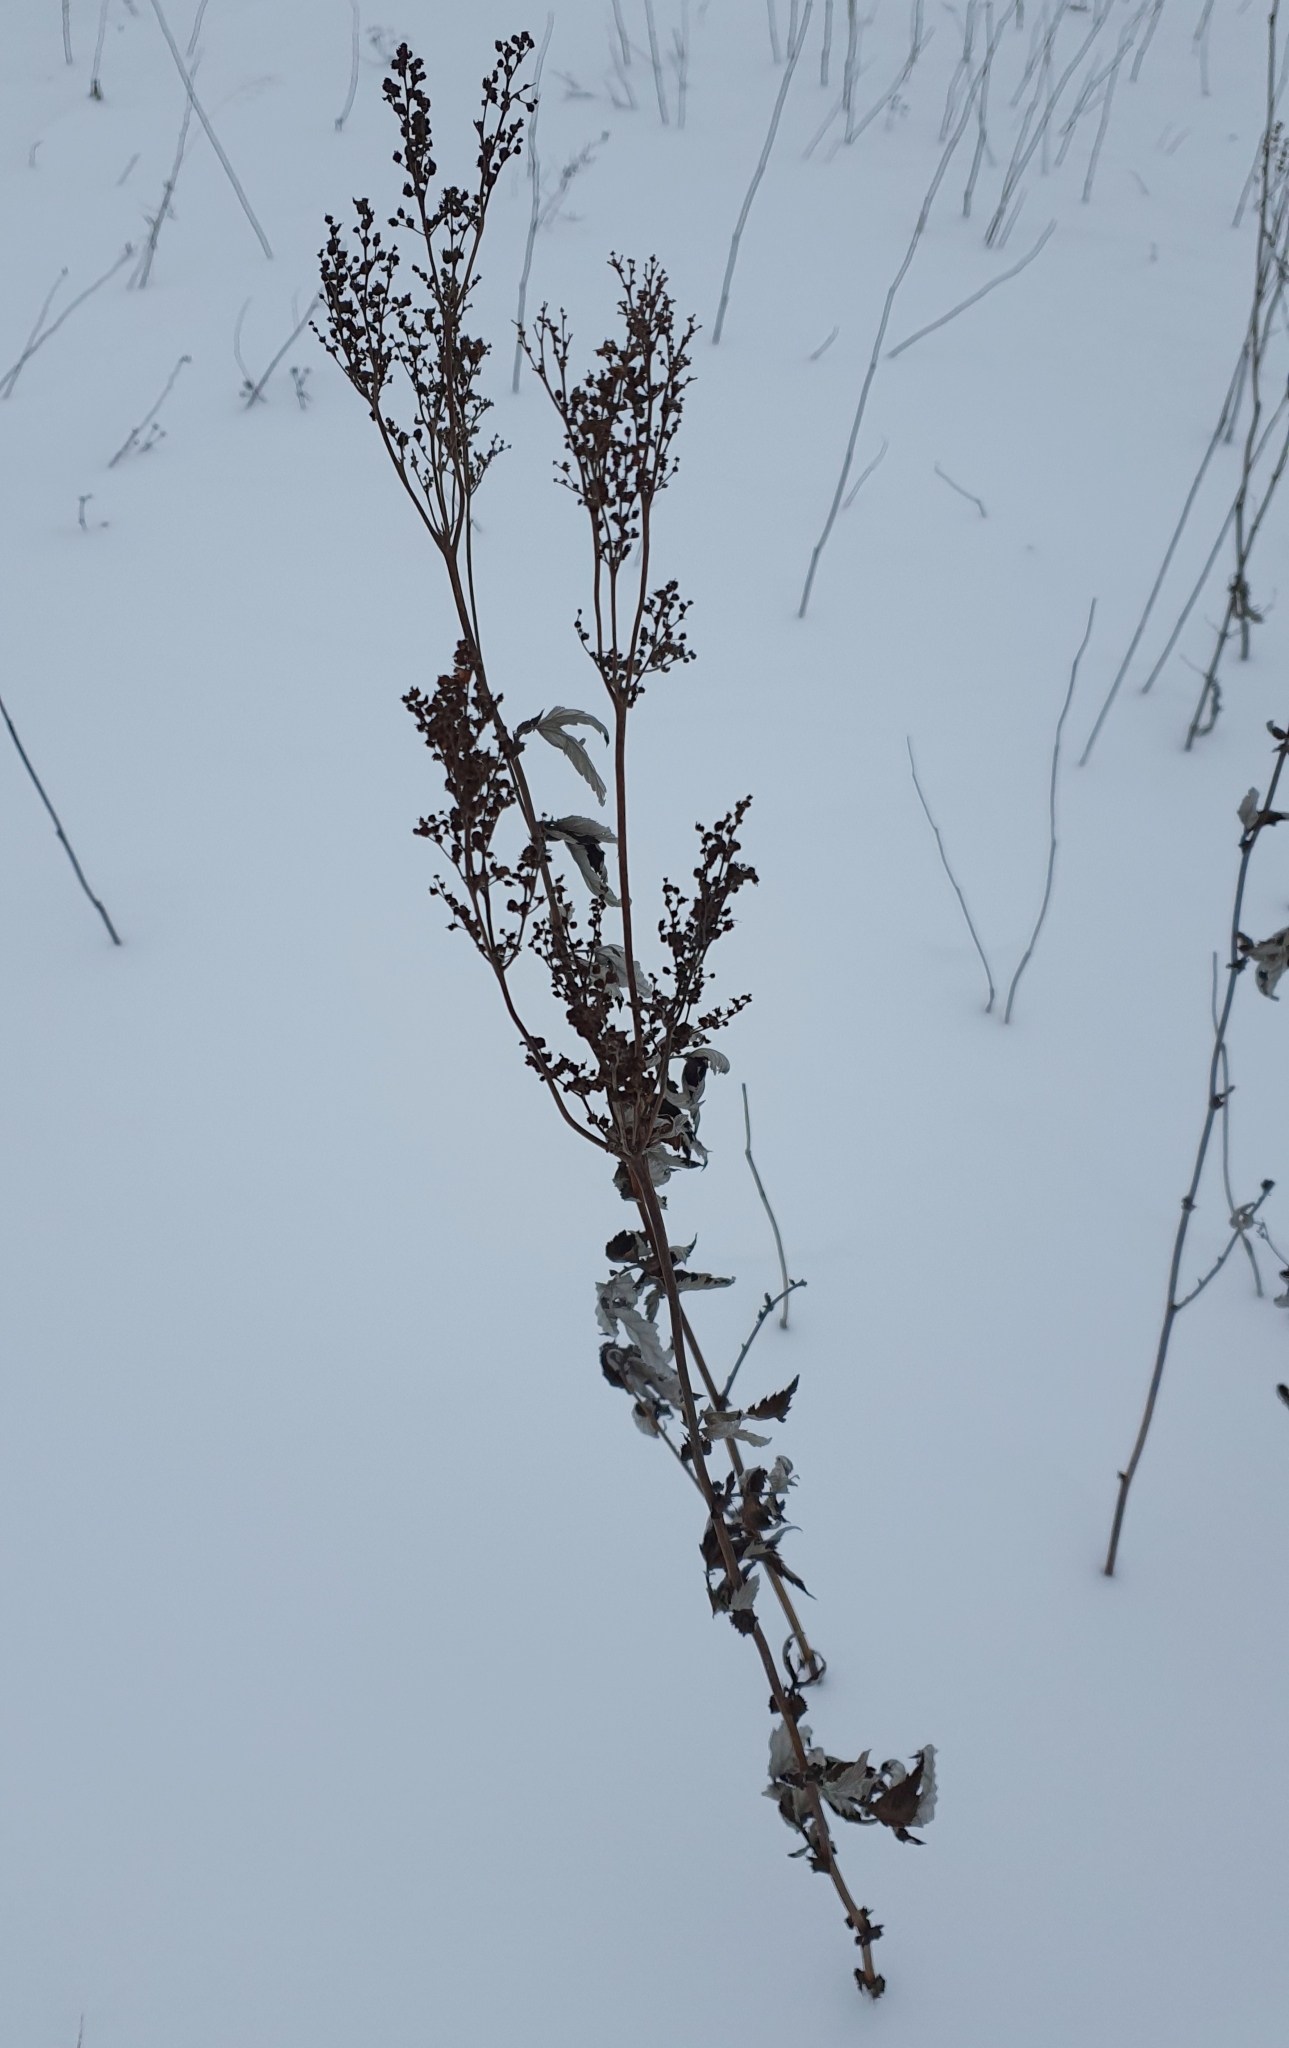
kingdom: Plantae
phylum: Tracheophyta
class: Magnoliopsida
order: Rosales
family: Rosaceae
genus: Filipendula
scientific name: Filipendula ulmaria
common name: Meadowsweet
